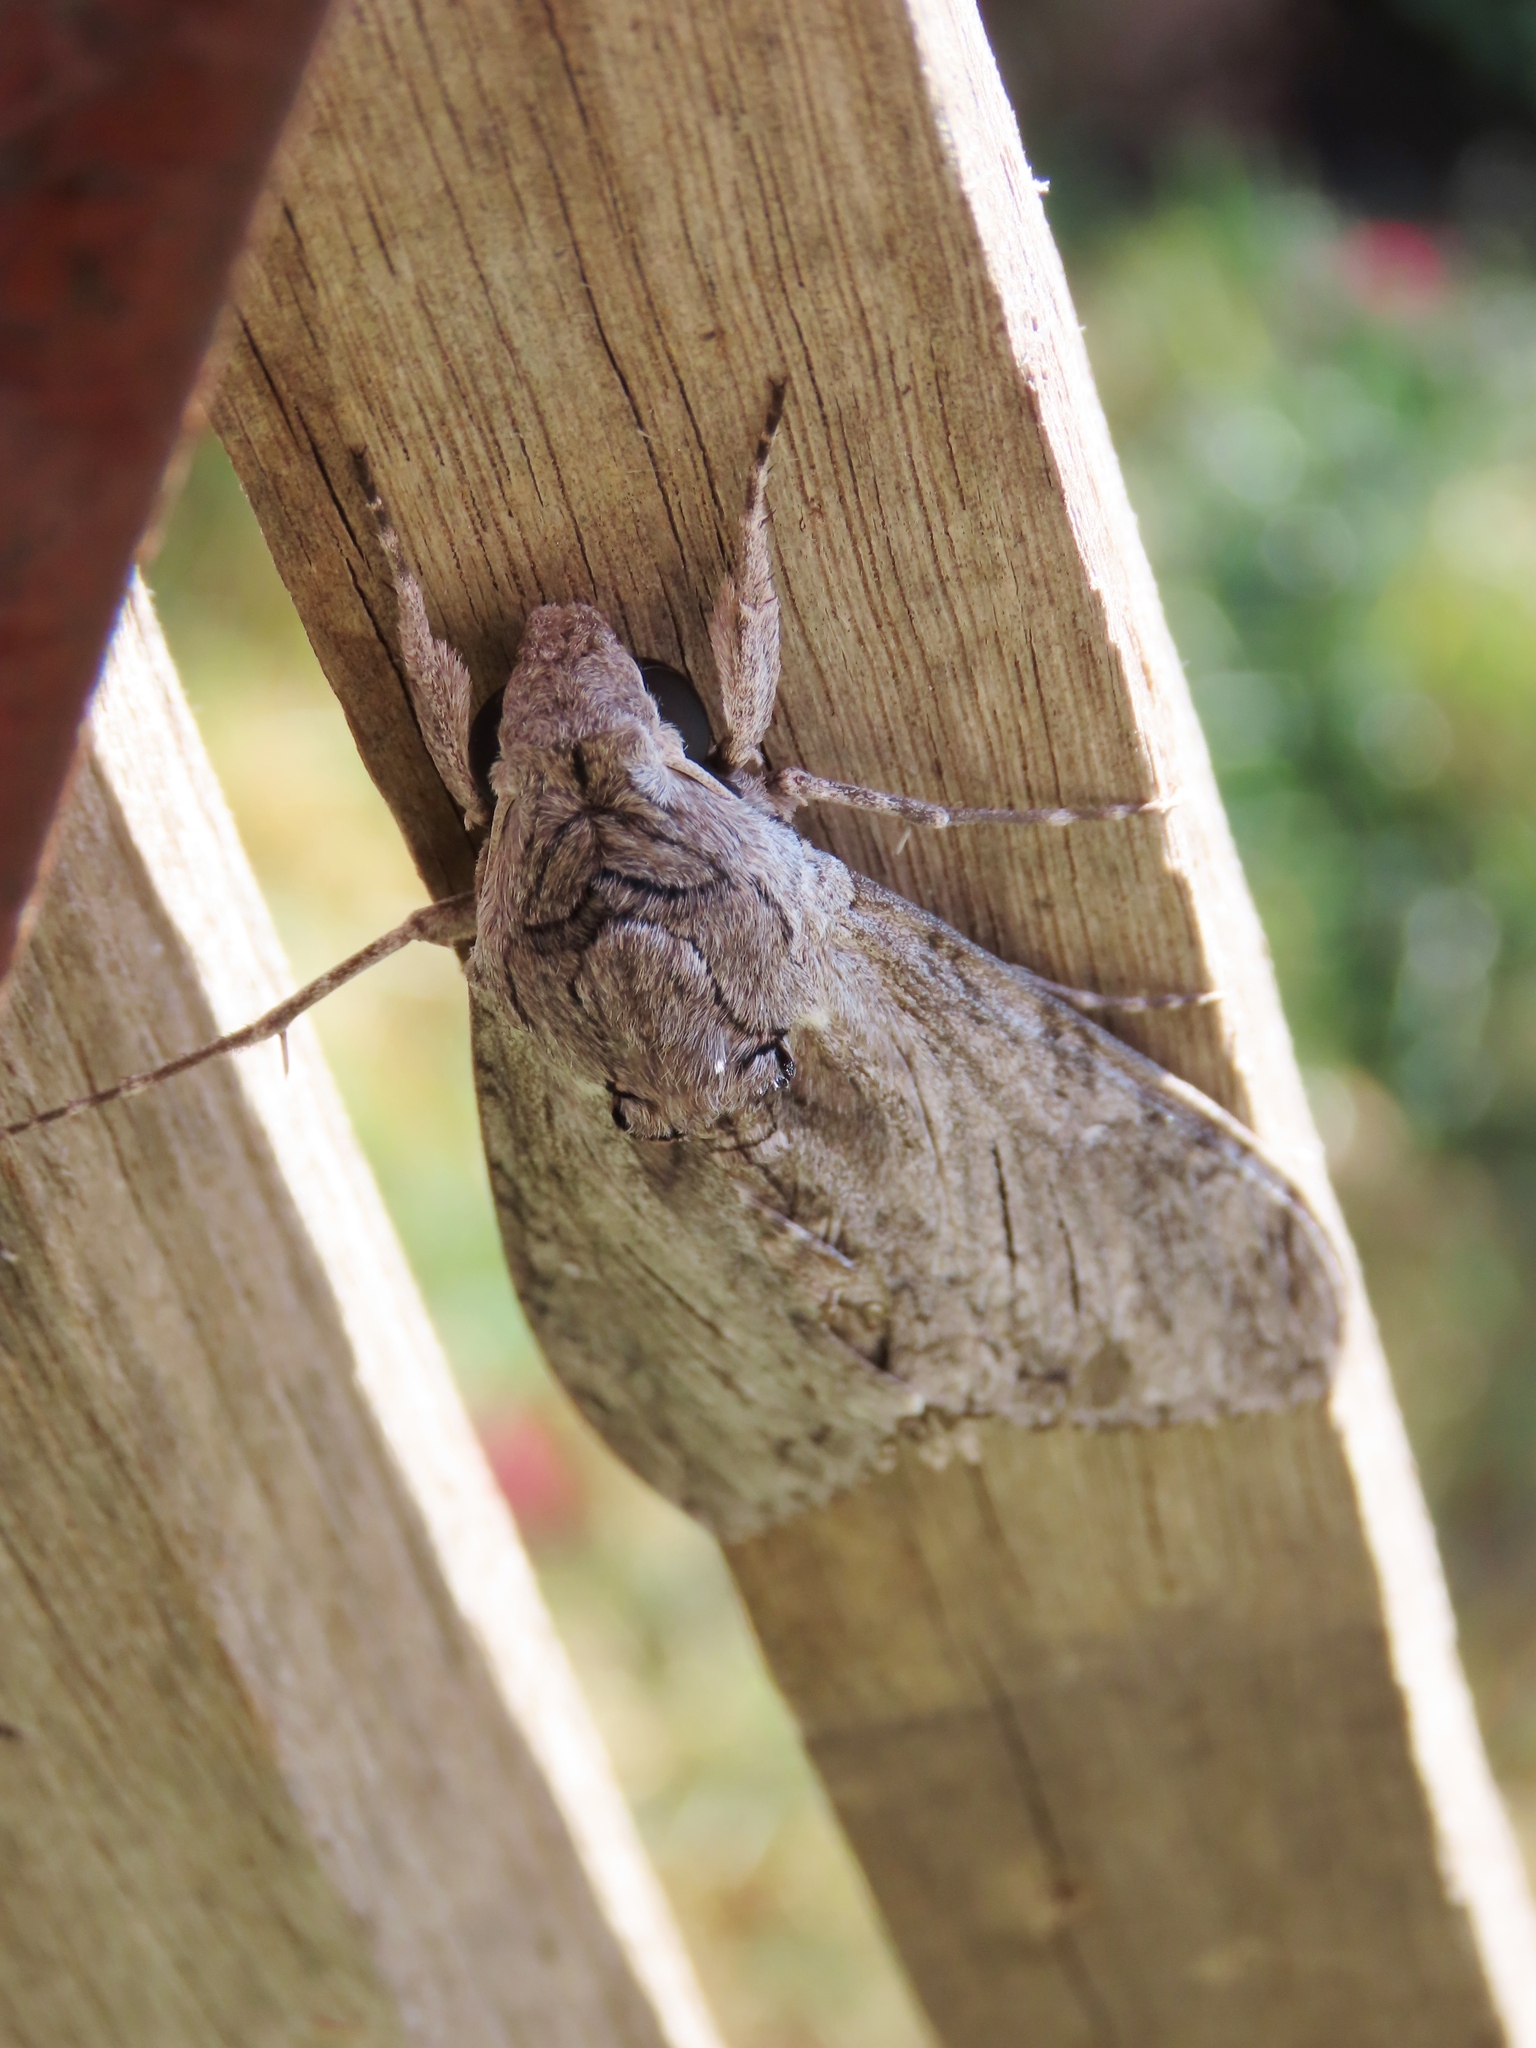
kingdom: Animalia
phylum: Arthropoda
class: Insecta
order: Lepidoptera
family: Sphingidae
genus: Agrius
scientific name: Agrius convolvuli
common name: Convolvulus hawkmoth
